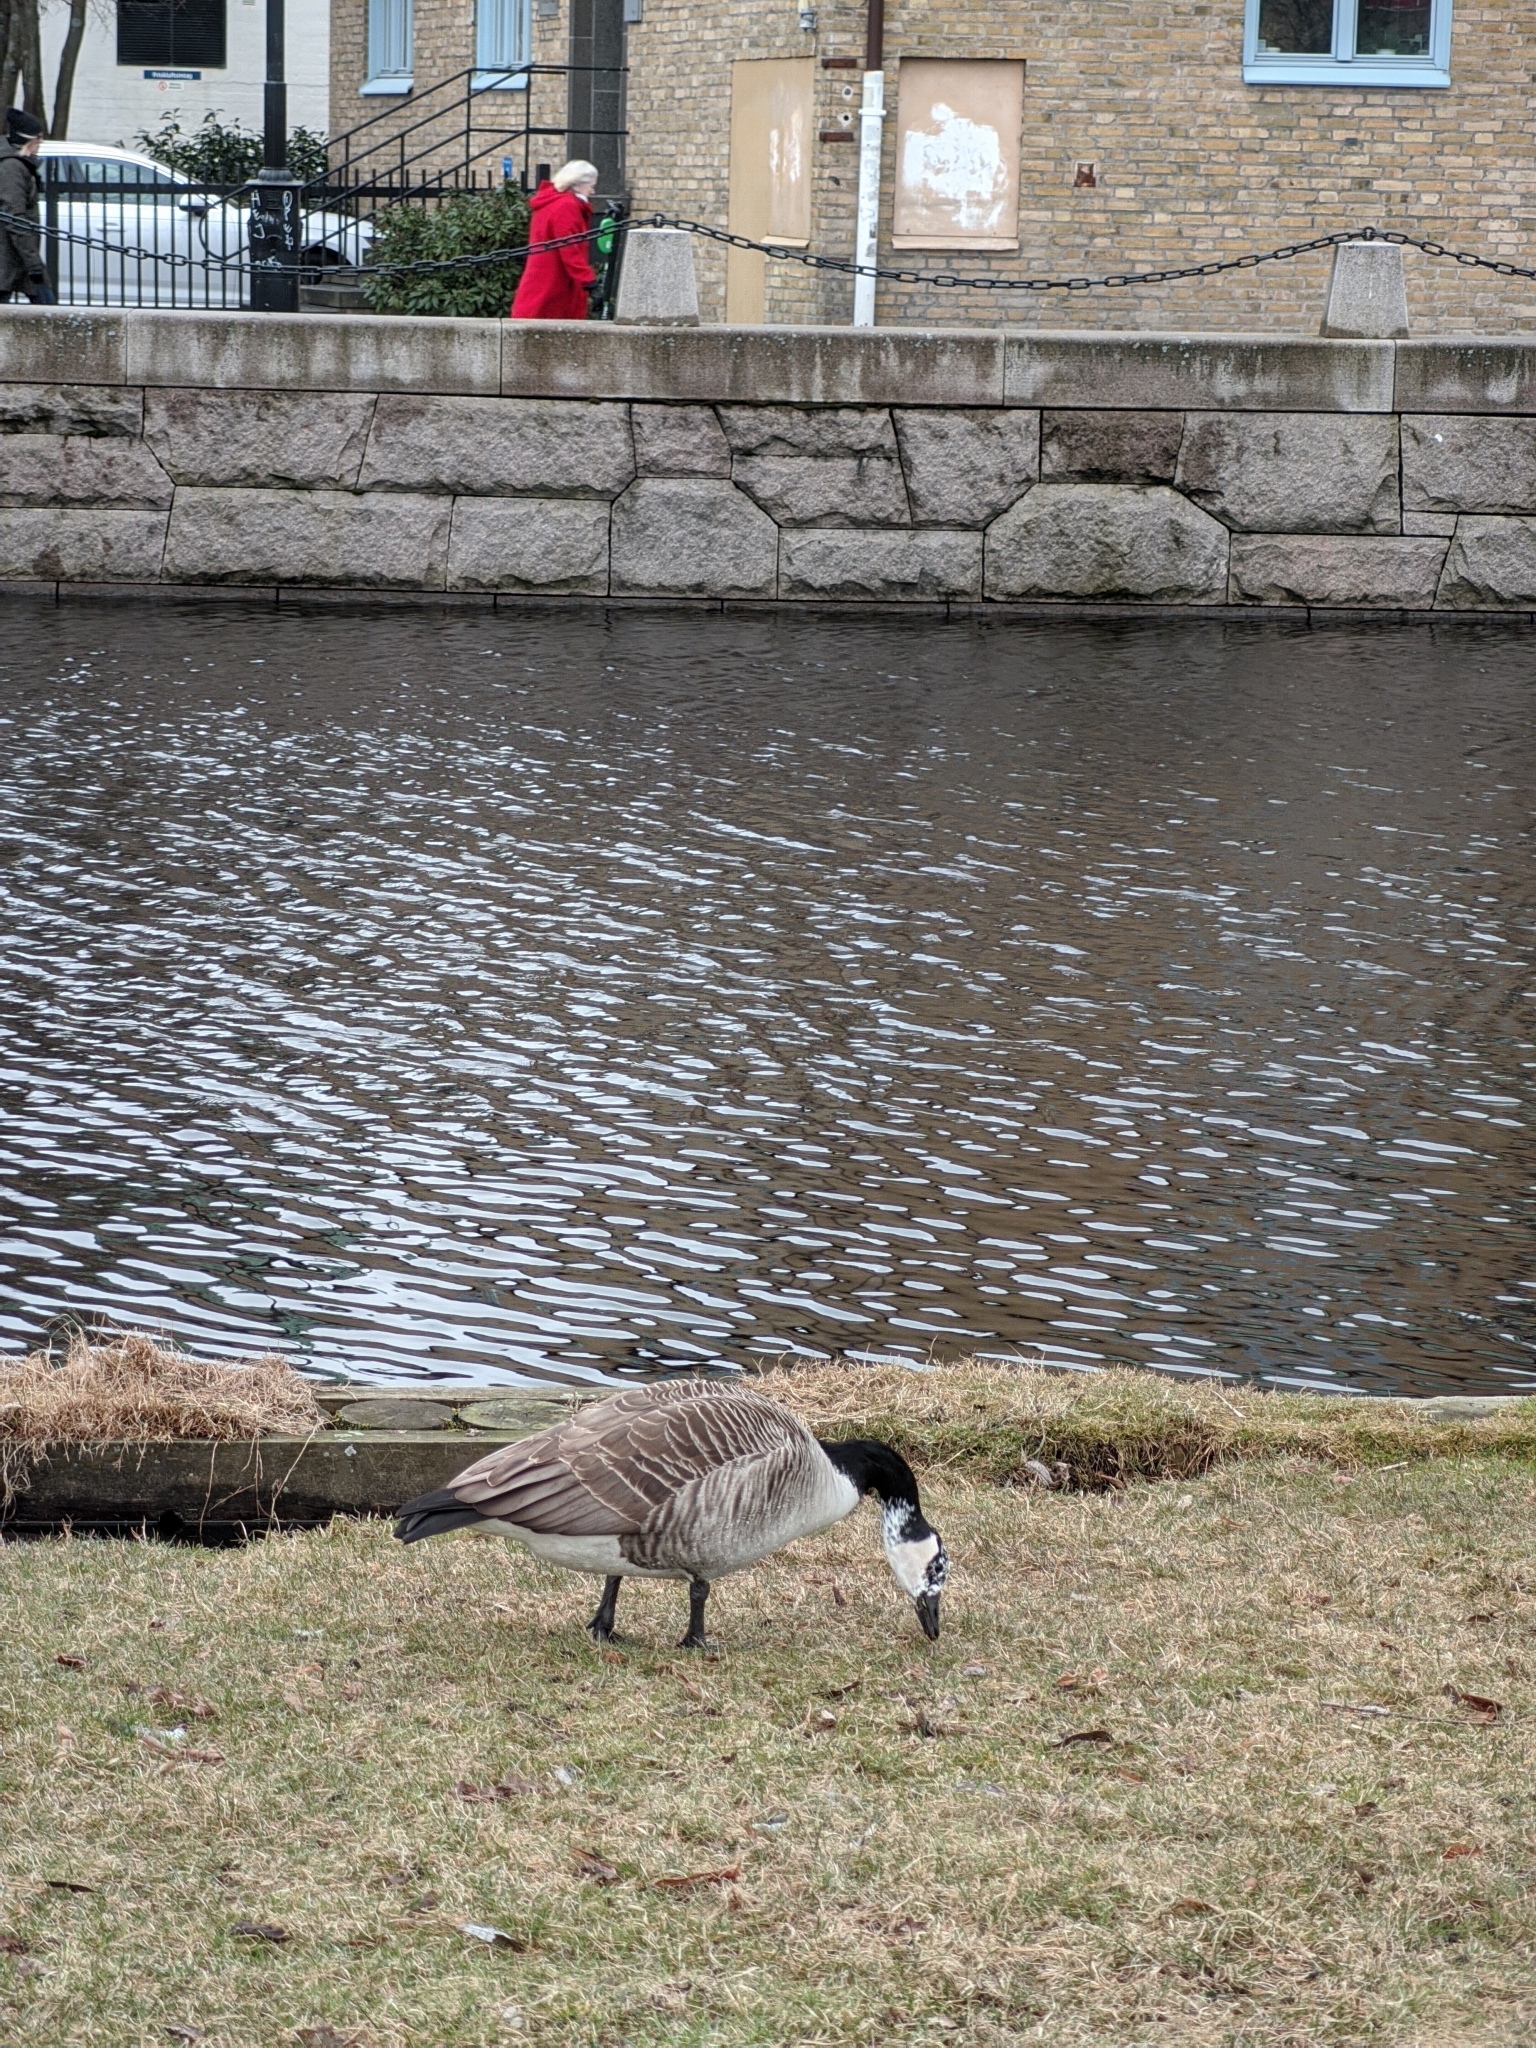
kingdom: Animalia
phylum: Chordata
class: Aves
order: Anseriformes
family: Anatidae
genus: Branta
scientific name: Branta canadensis
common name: Canada goose
